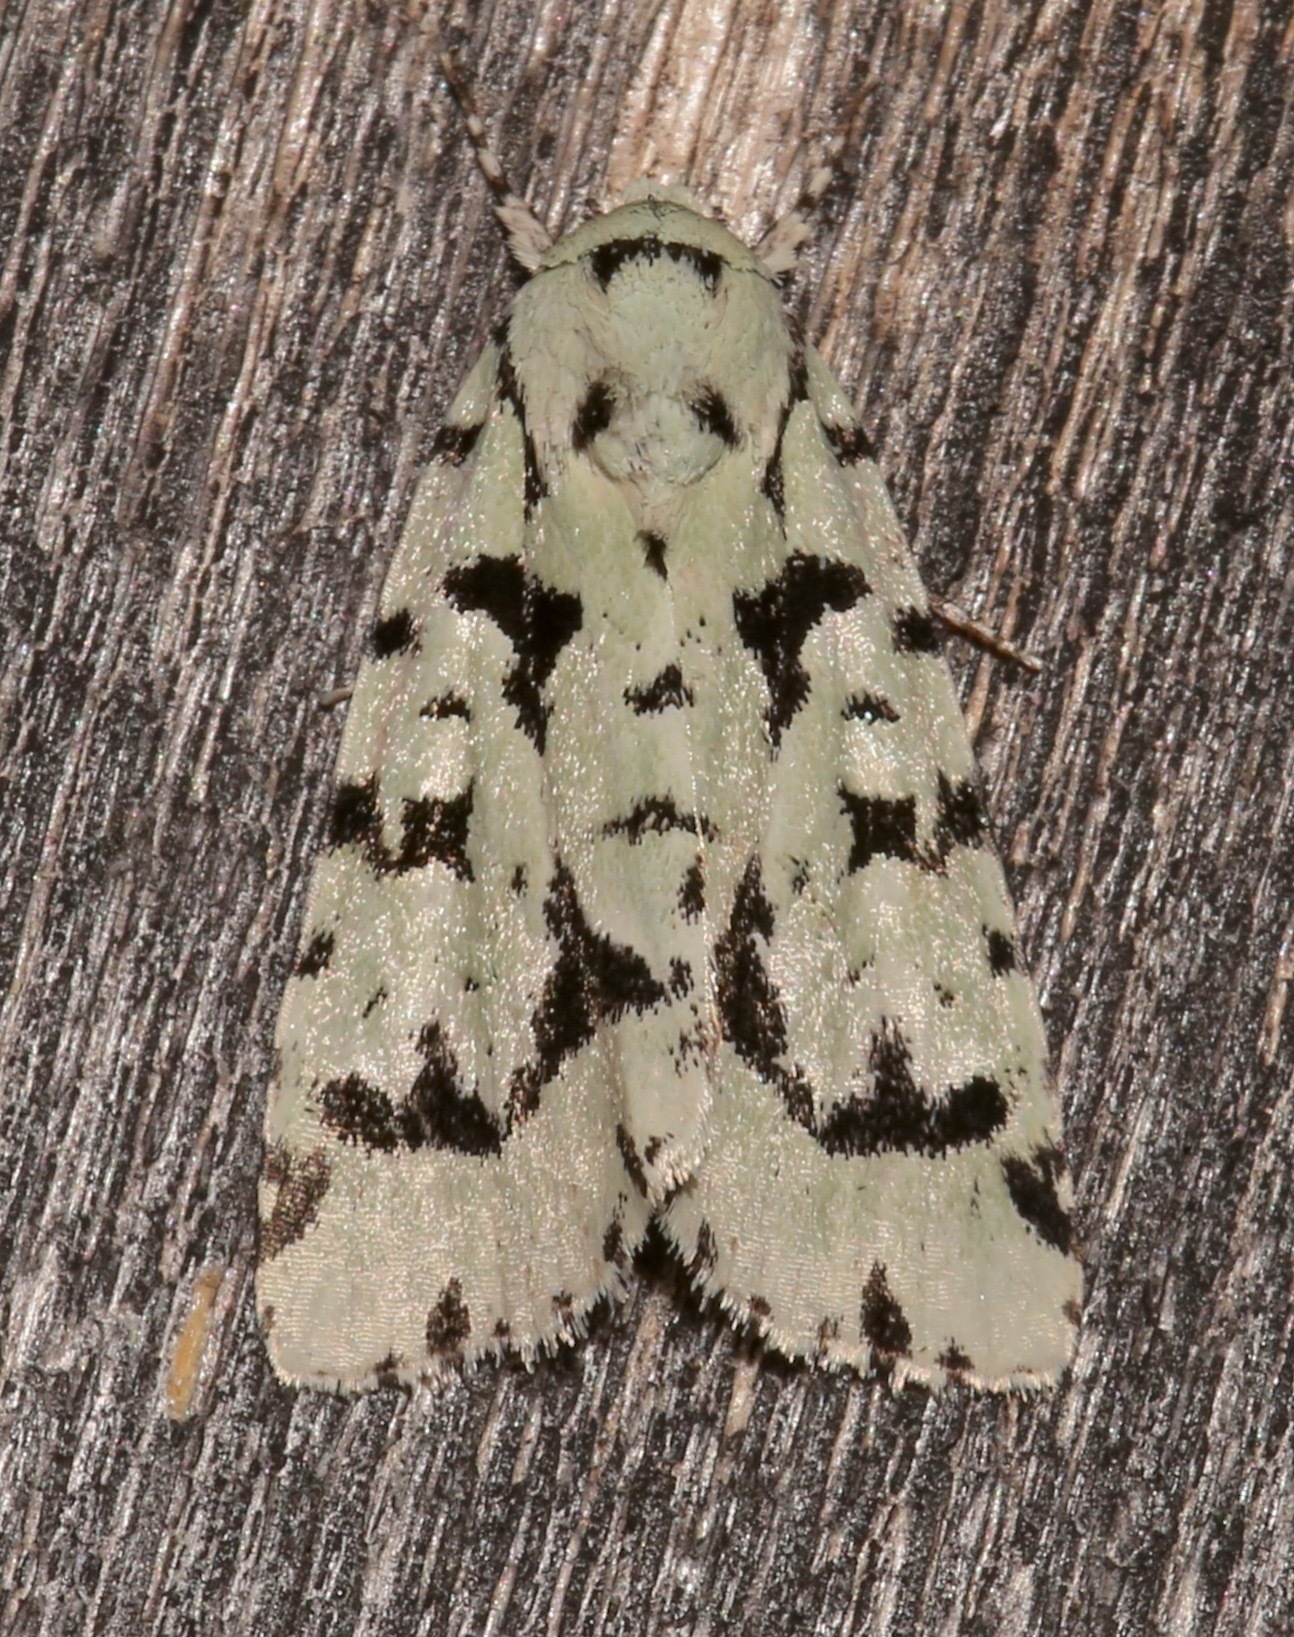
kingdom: Animalia
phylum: Arthropoda
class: Insecta
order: Lepidoptera
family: Noctuidae
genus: Acronicta
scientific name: Acronicta fallax
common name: Green marvel
